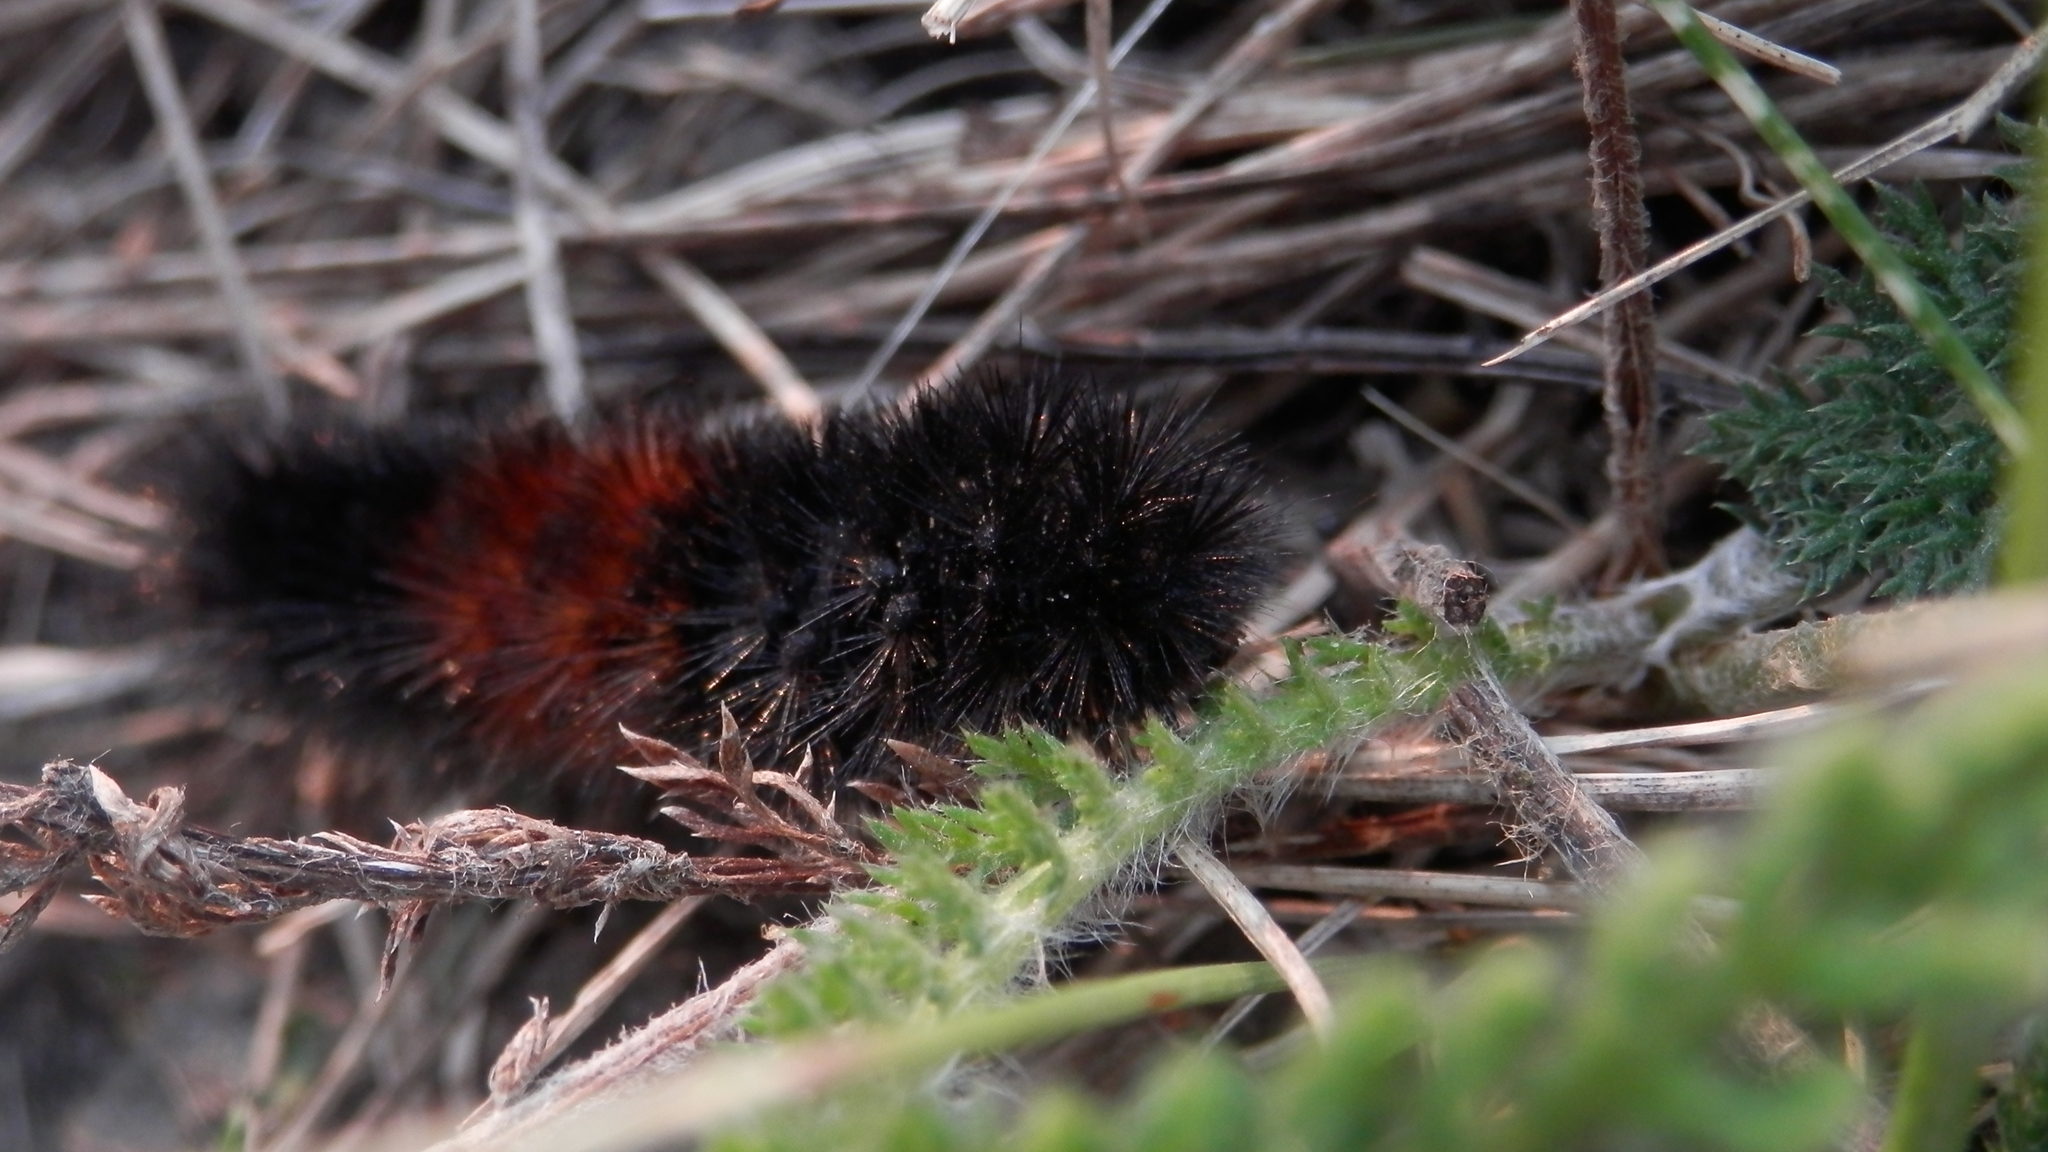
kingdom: Animalia
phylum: Arthropoda
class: Insecta
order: Lepidoptera
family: Erebidae
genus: Pyrrharctia
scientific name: Pyrrharctia isabella
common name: Isabella tiger moth
